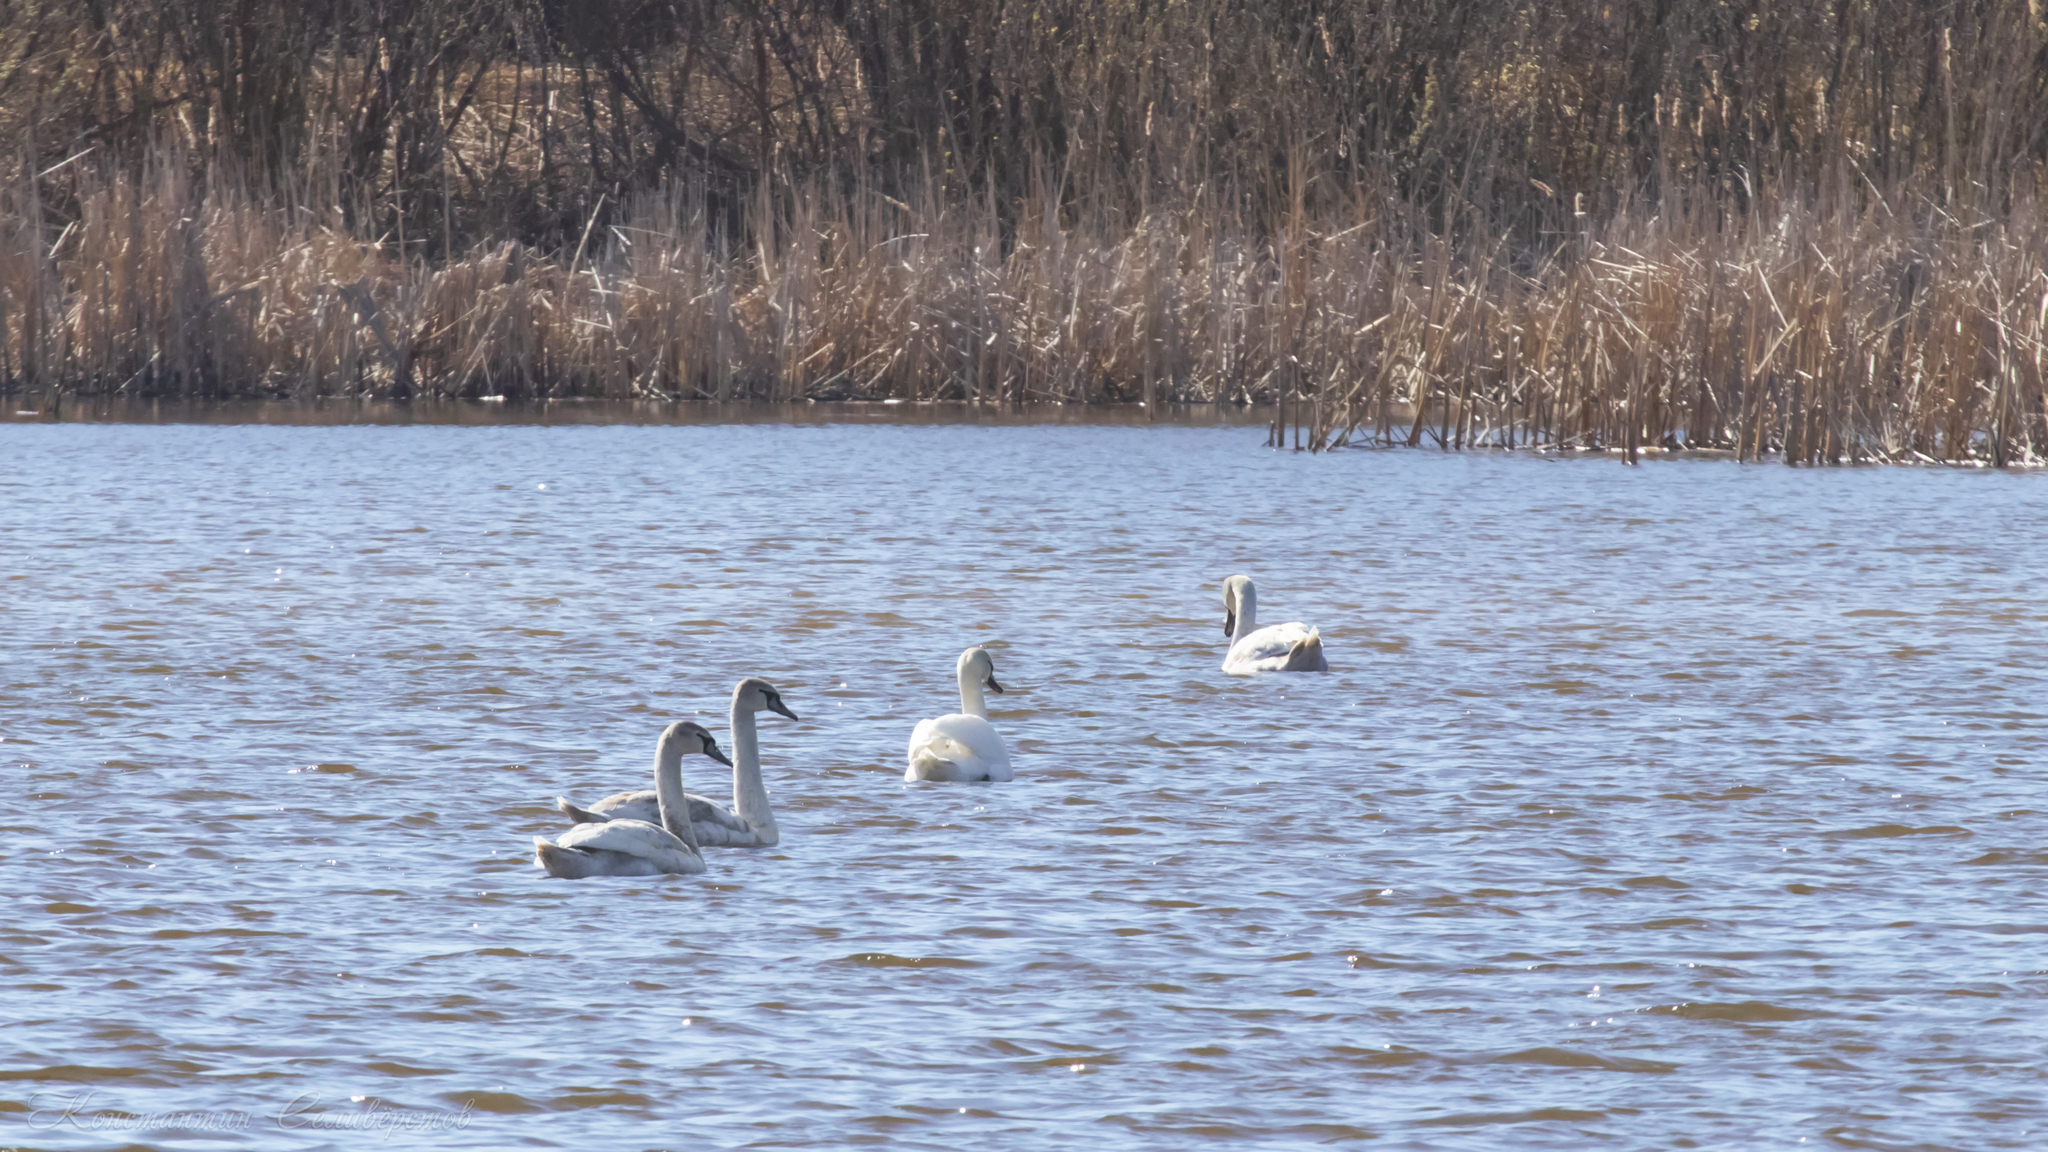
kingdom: Animalia
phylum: Chordata
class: Aves
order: Anseriformes
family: Anatidae
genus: Cygnus
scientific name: Cygnus olor
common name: Mute swan
